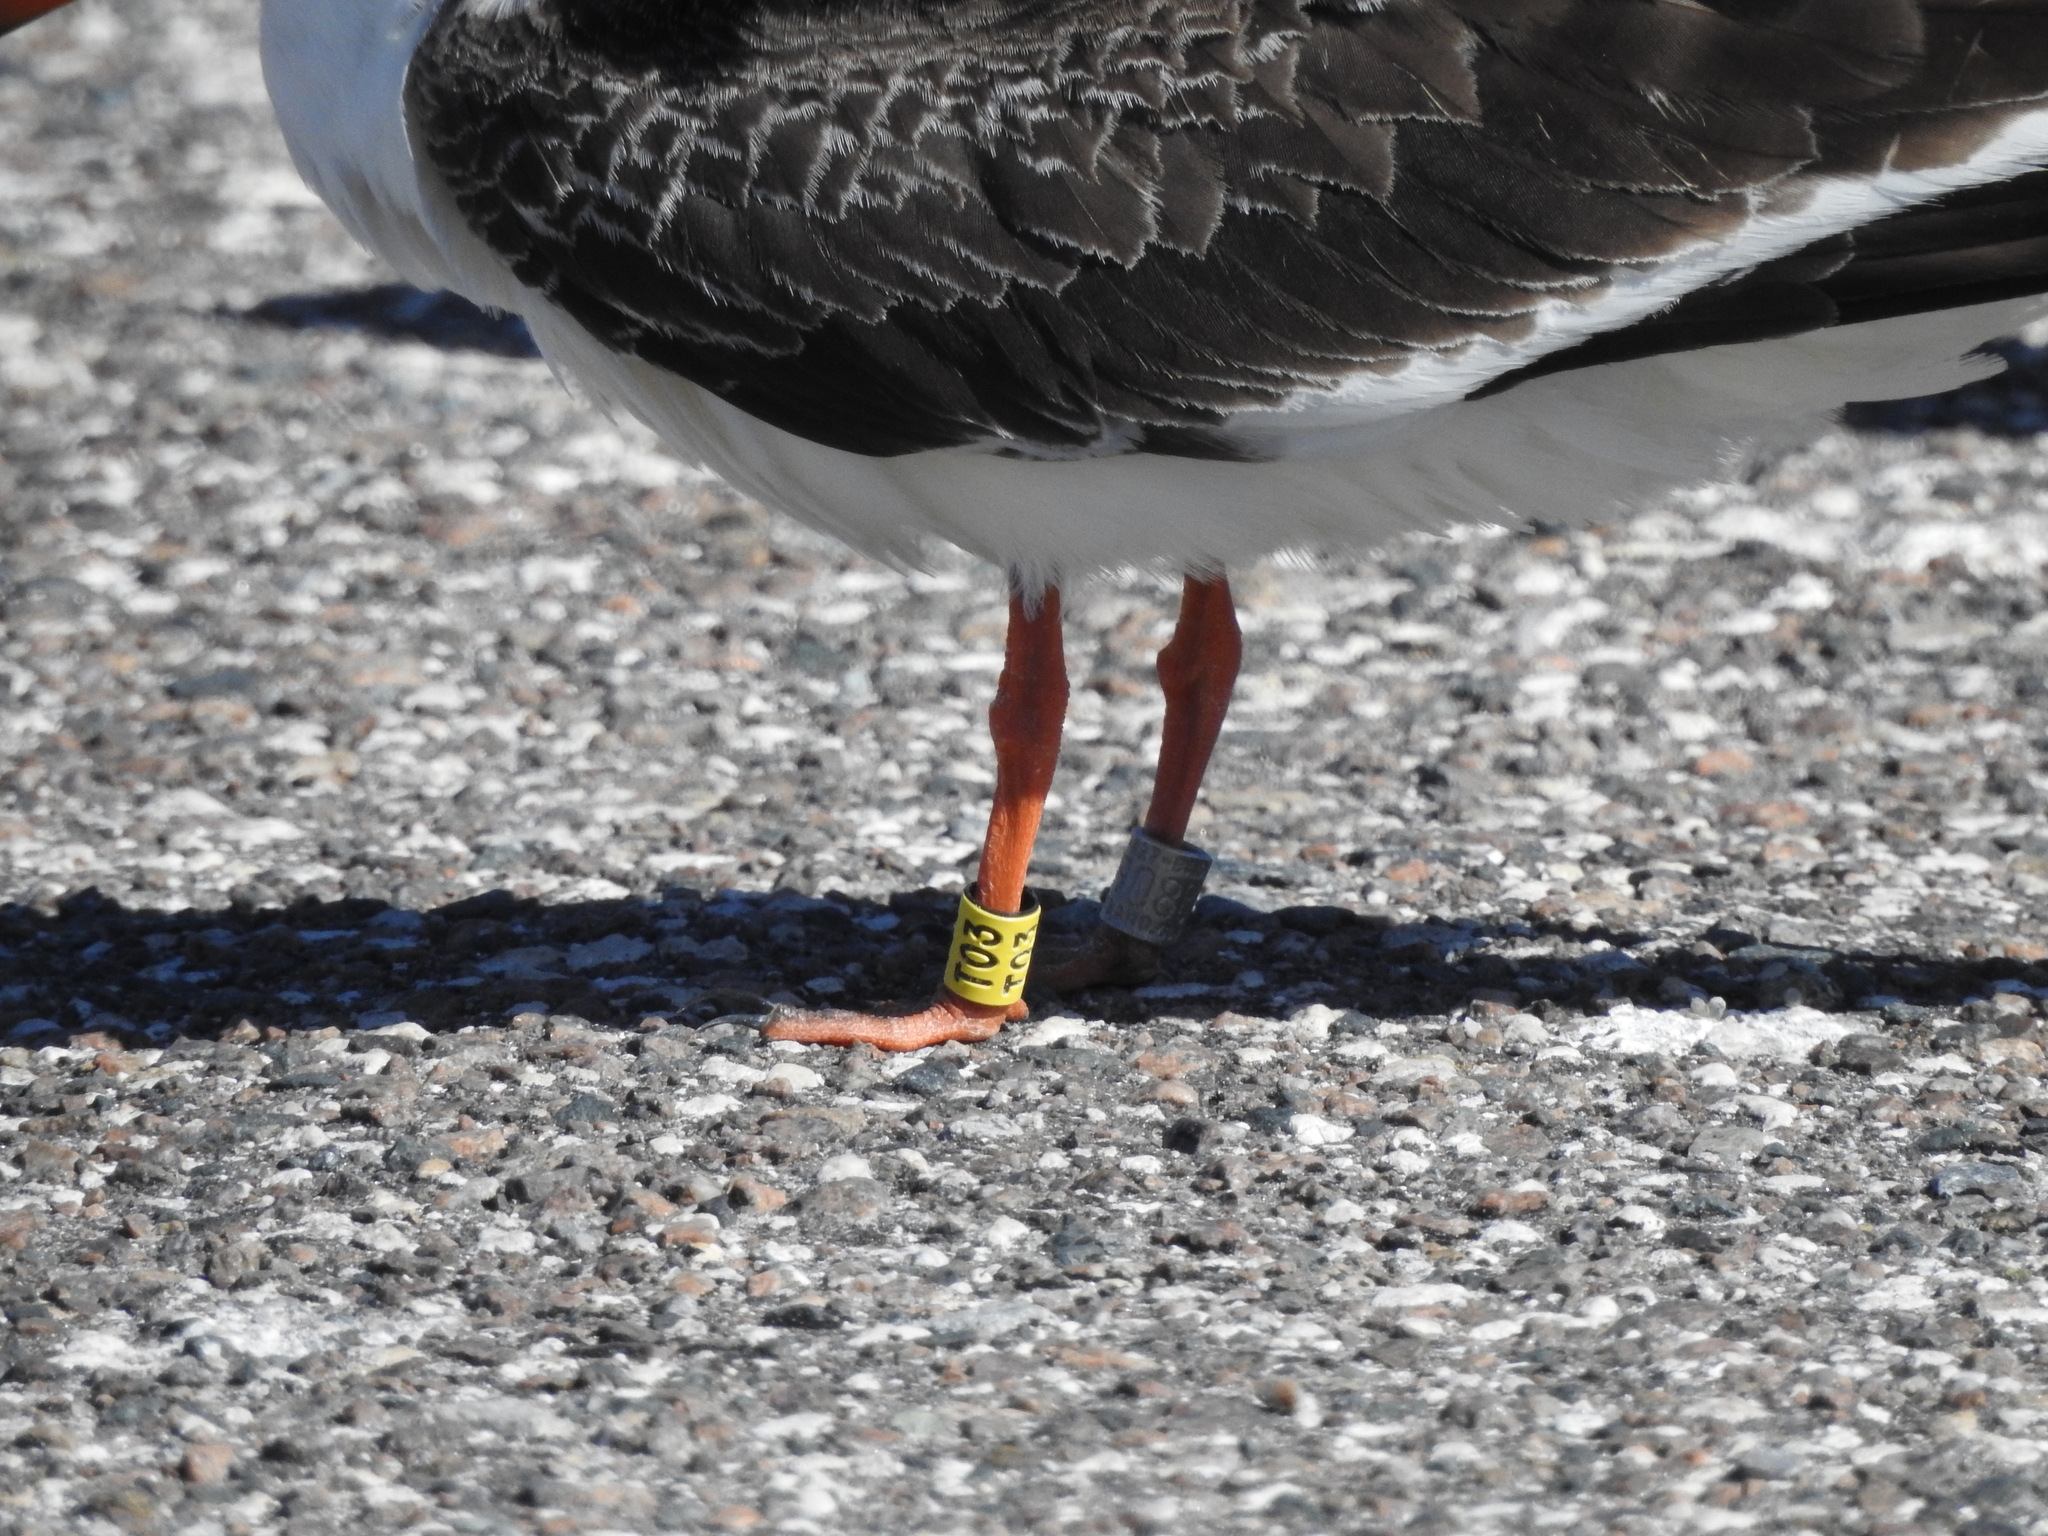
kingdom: Animalia
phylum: Chordata
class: Aves
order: Charadriiformes
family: Laridae
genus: Rynchops
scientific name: Rynchops niger
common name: Black skimmer
